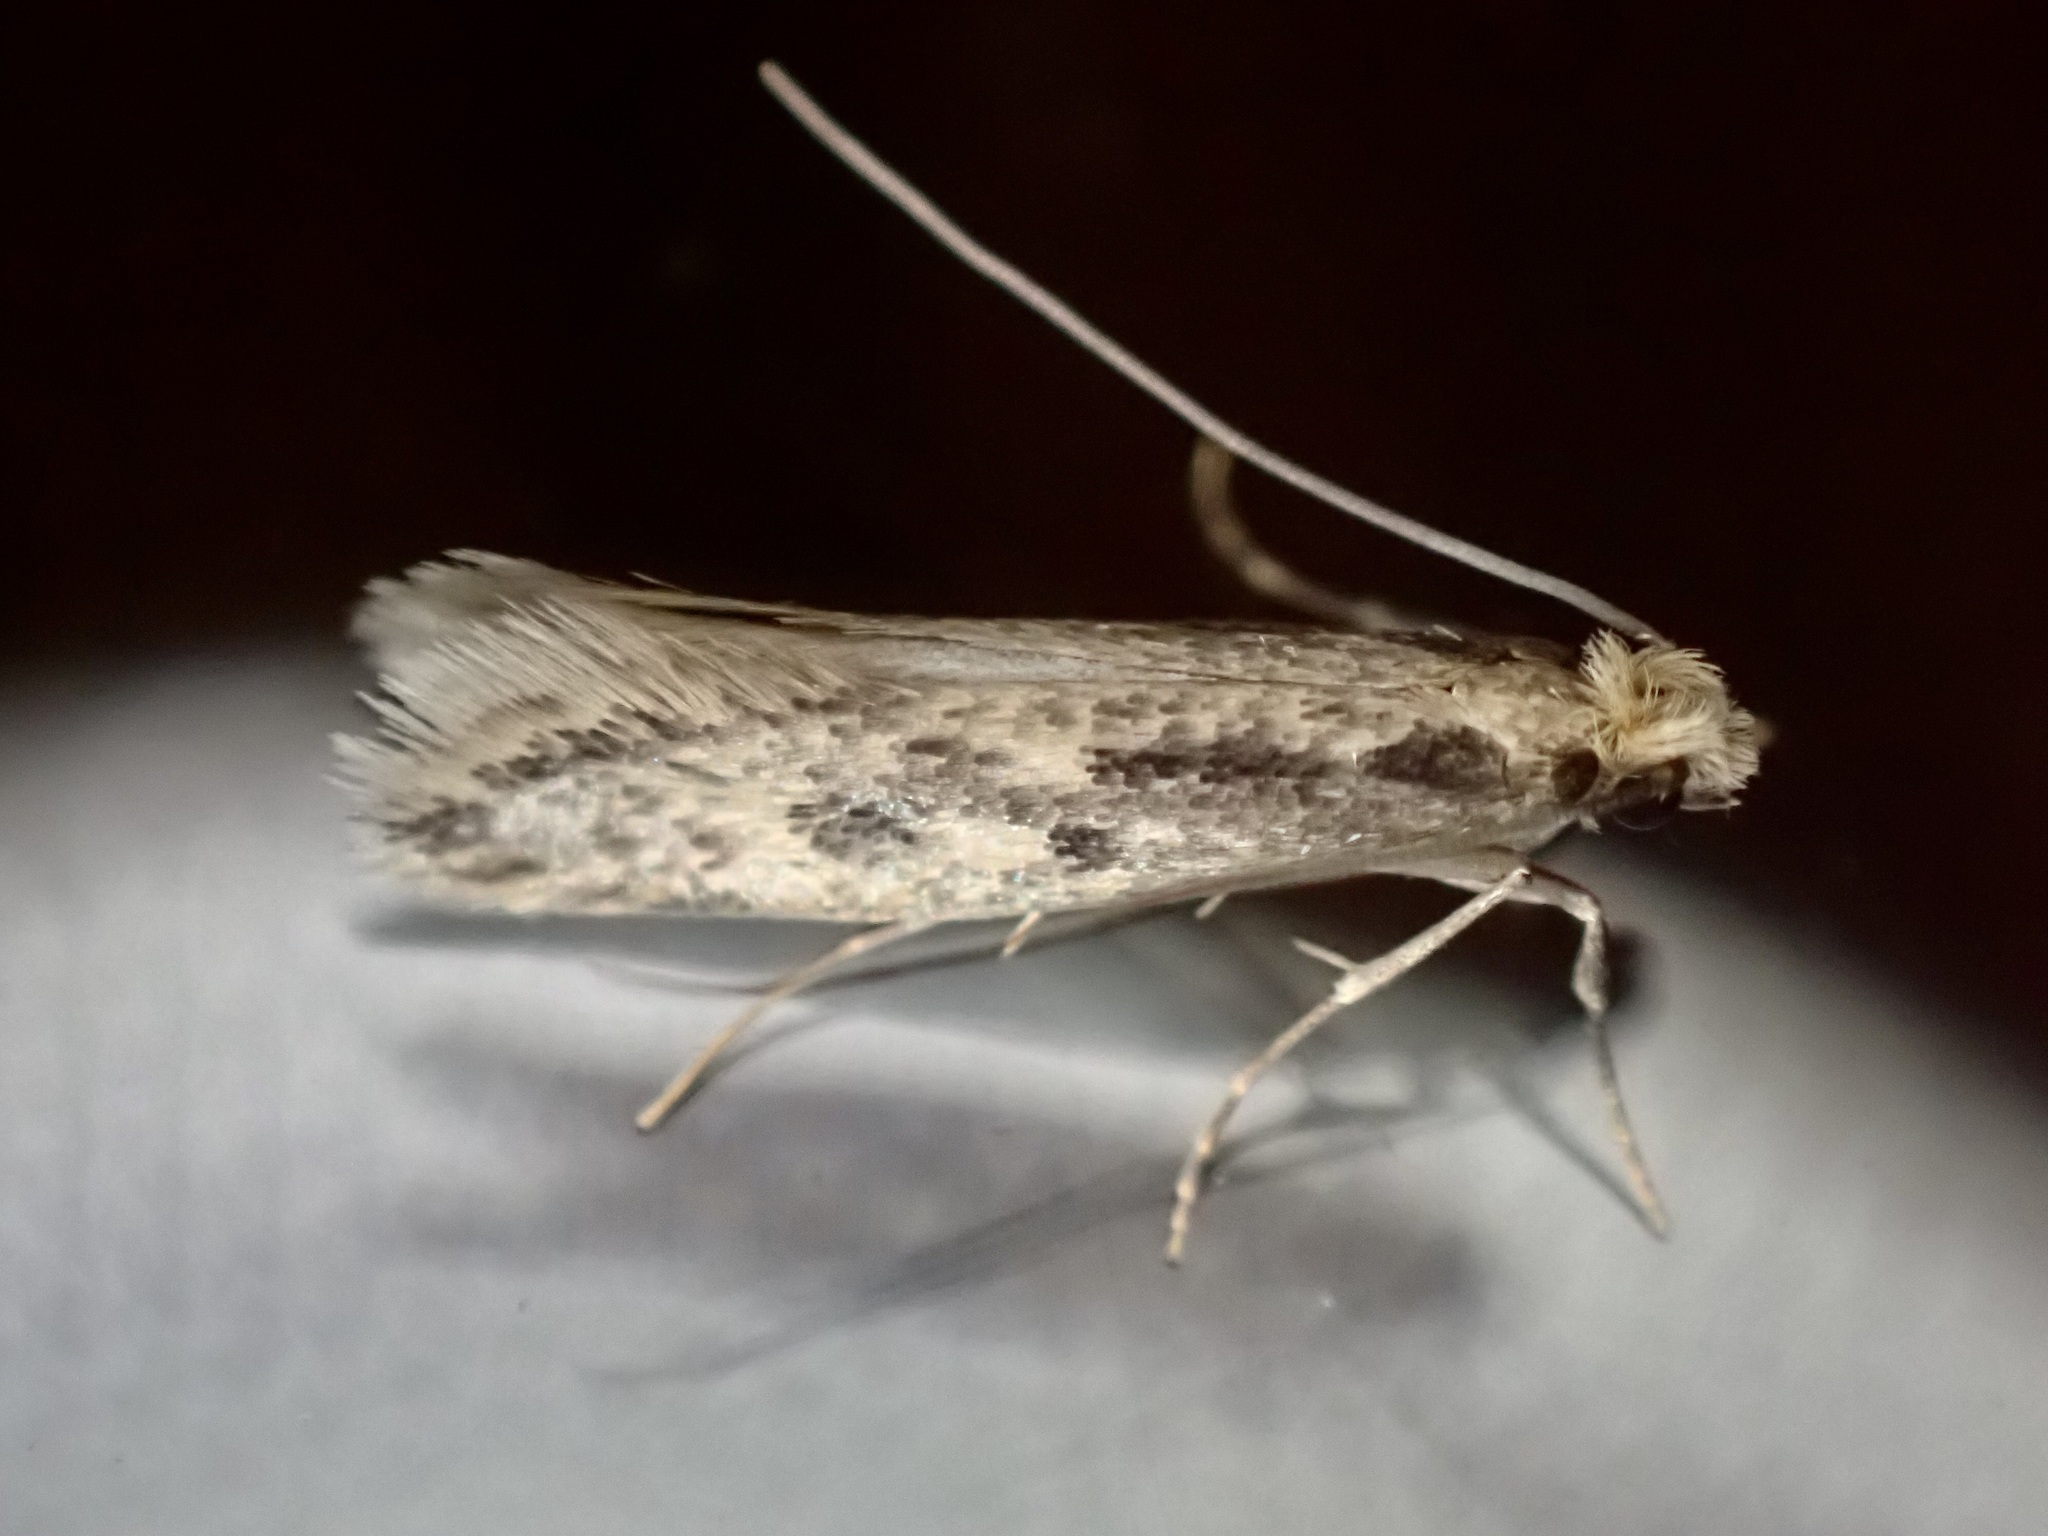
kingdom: Animalia
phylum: Arthropoda
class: Insecta
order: Lepidoptera
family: Tineidae
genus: Tinea
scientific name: Tinea pallescentella
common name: Large pale clothes moth
